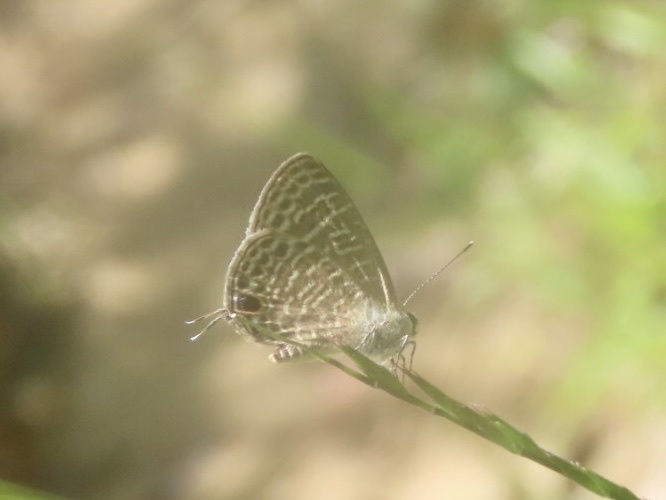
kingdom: Animalia
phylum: Arthropoda
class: Insecta
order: Lepidoptera
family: Lycaenidae
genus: Nacaduba
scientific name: Nacaduba kurava
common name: Transparent 6-line blue
